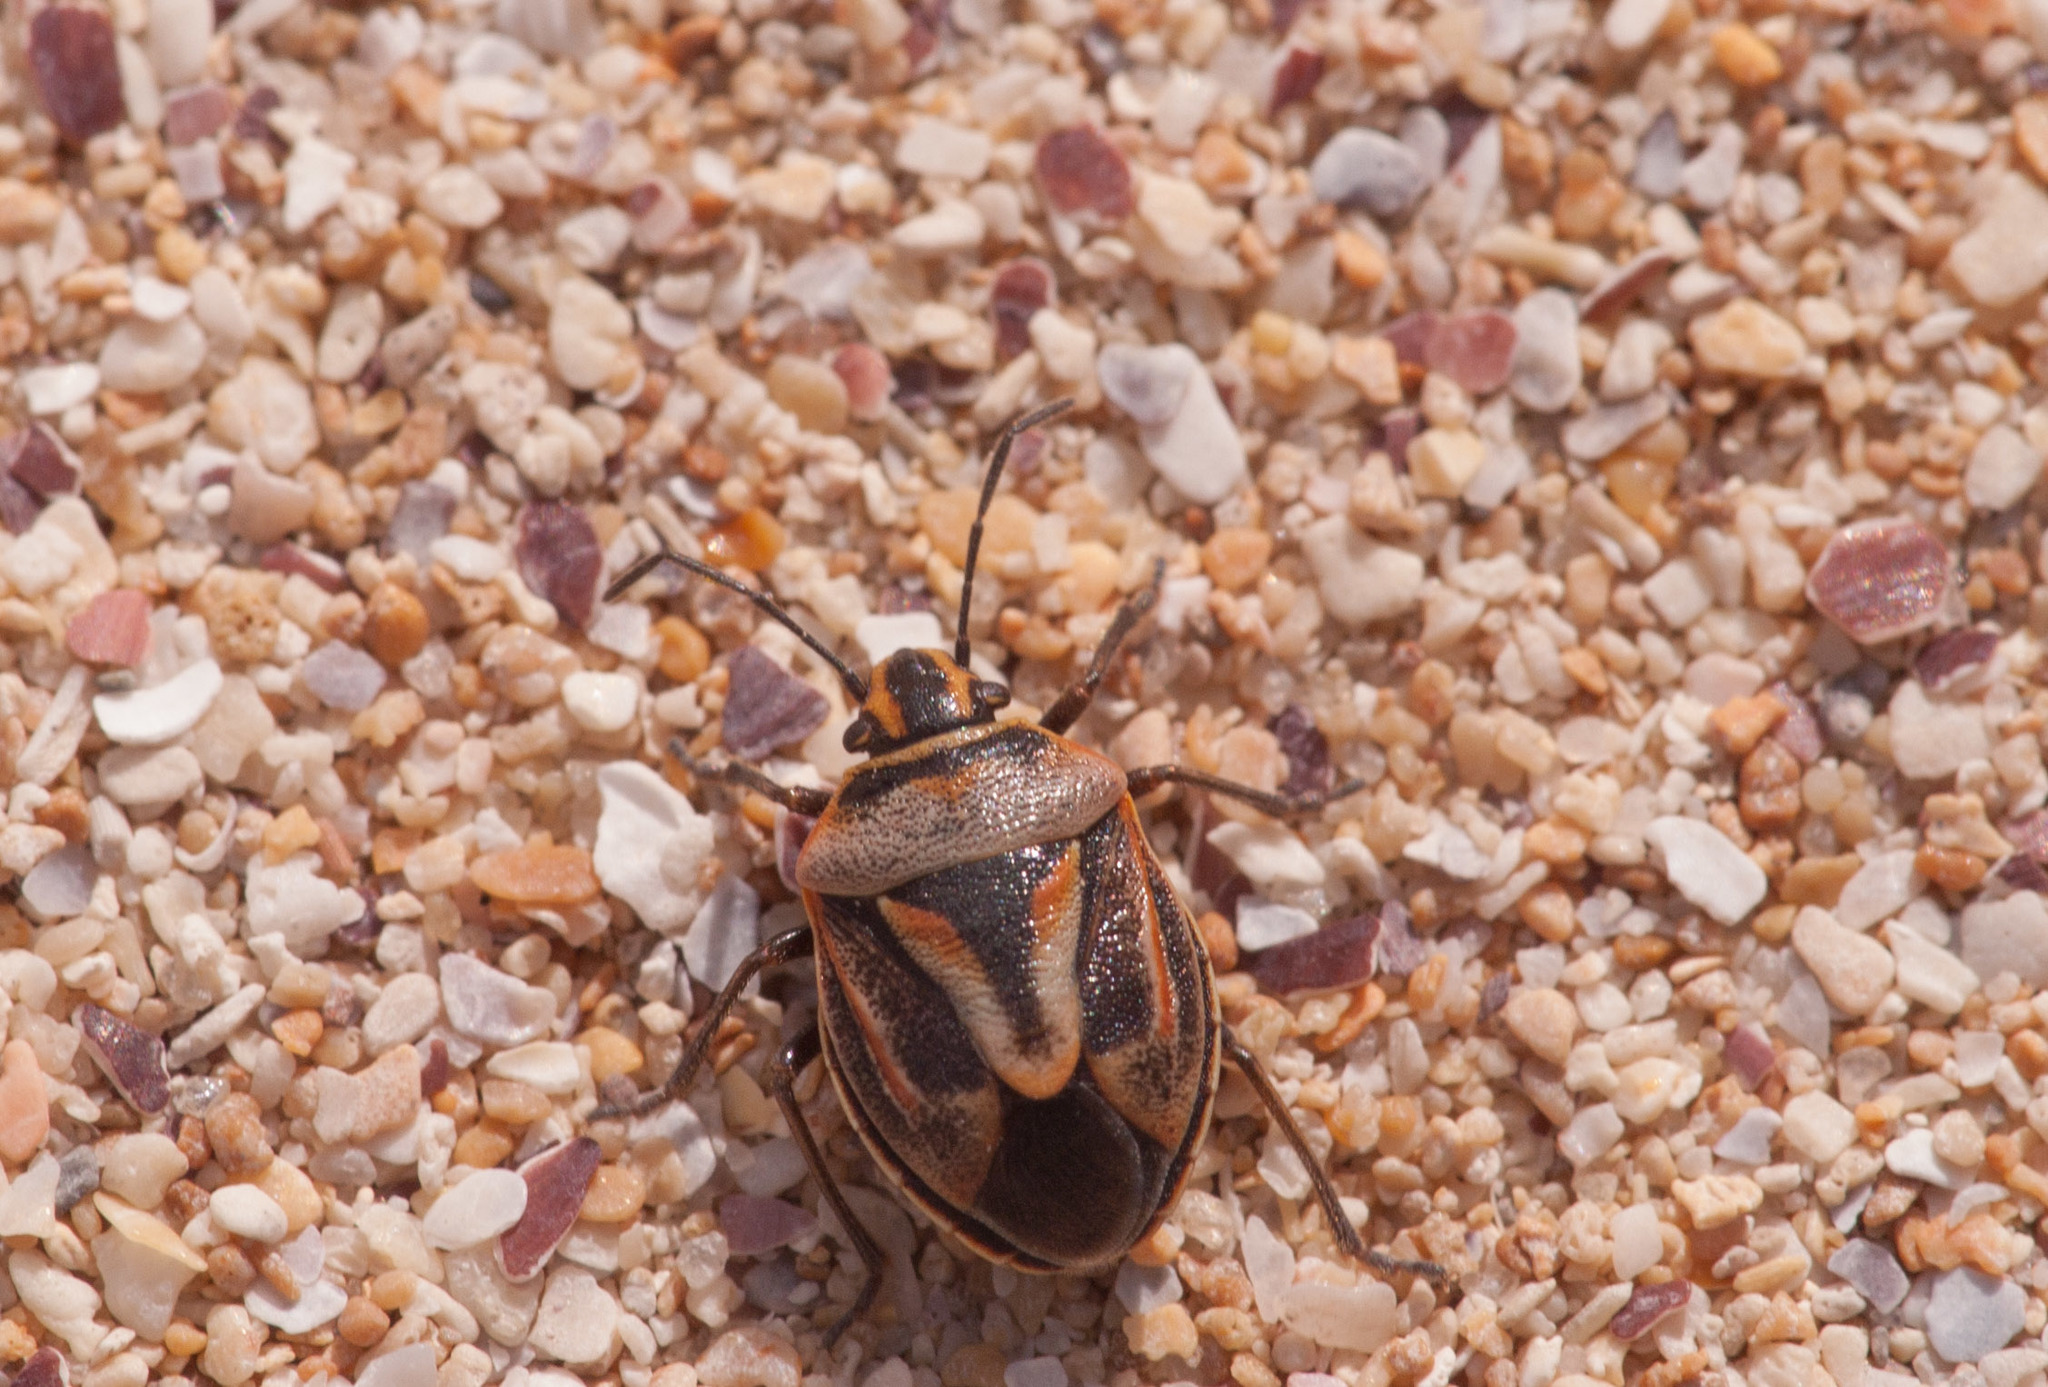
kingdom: Animalia
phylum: Arthropoda
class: Insecta
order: Hemiptera
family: Pentatomidae
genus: Anaxilaus
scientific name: Anaxilaus
